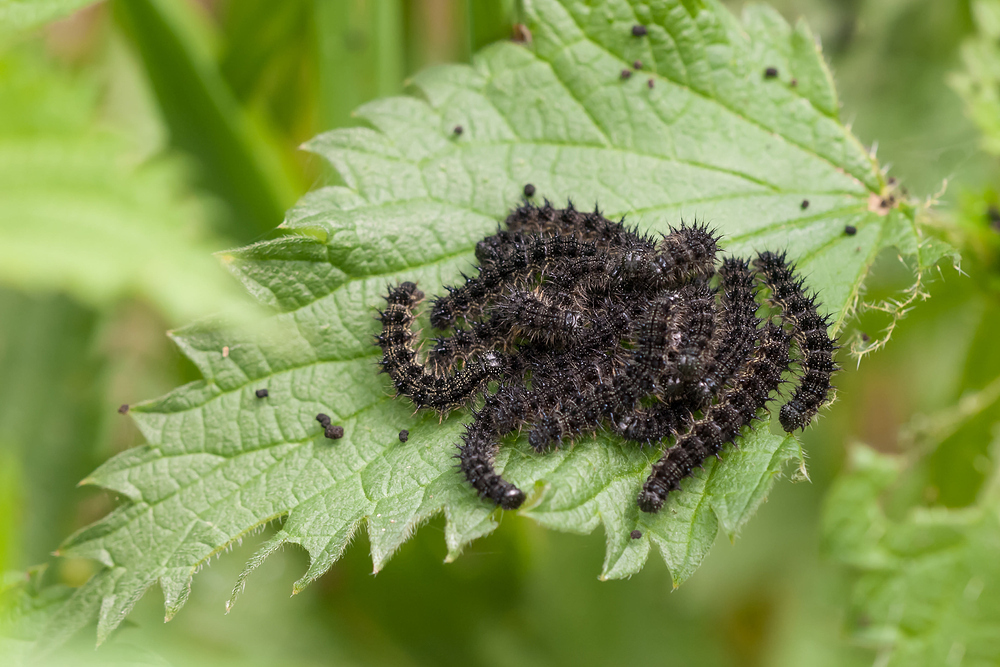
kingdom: Animalia
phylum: Arthropoda
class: Insecta
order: Lepidoptera
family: Nymphalidae
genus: Aglais
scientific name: Aglais urticae
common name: Small tortoiseshell
